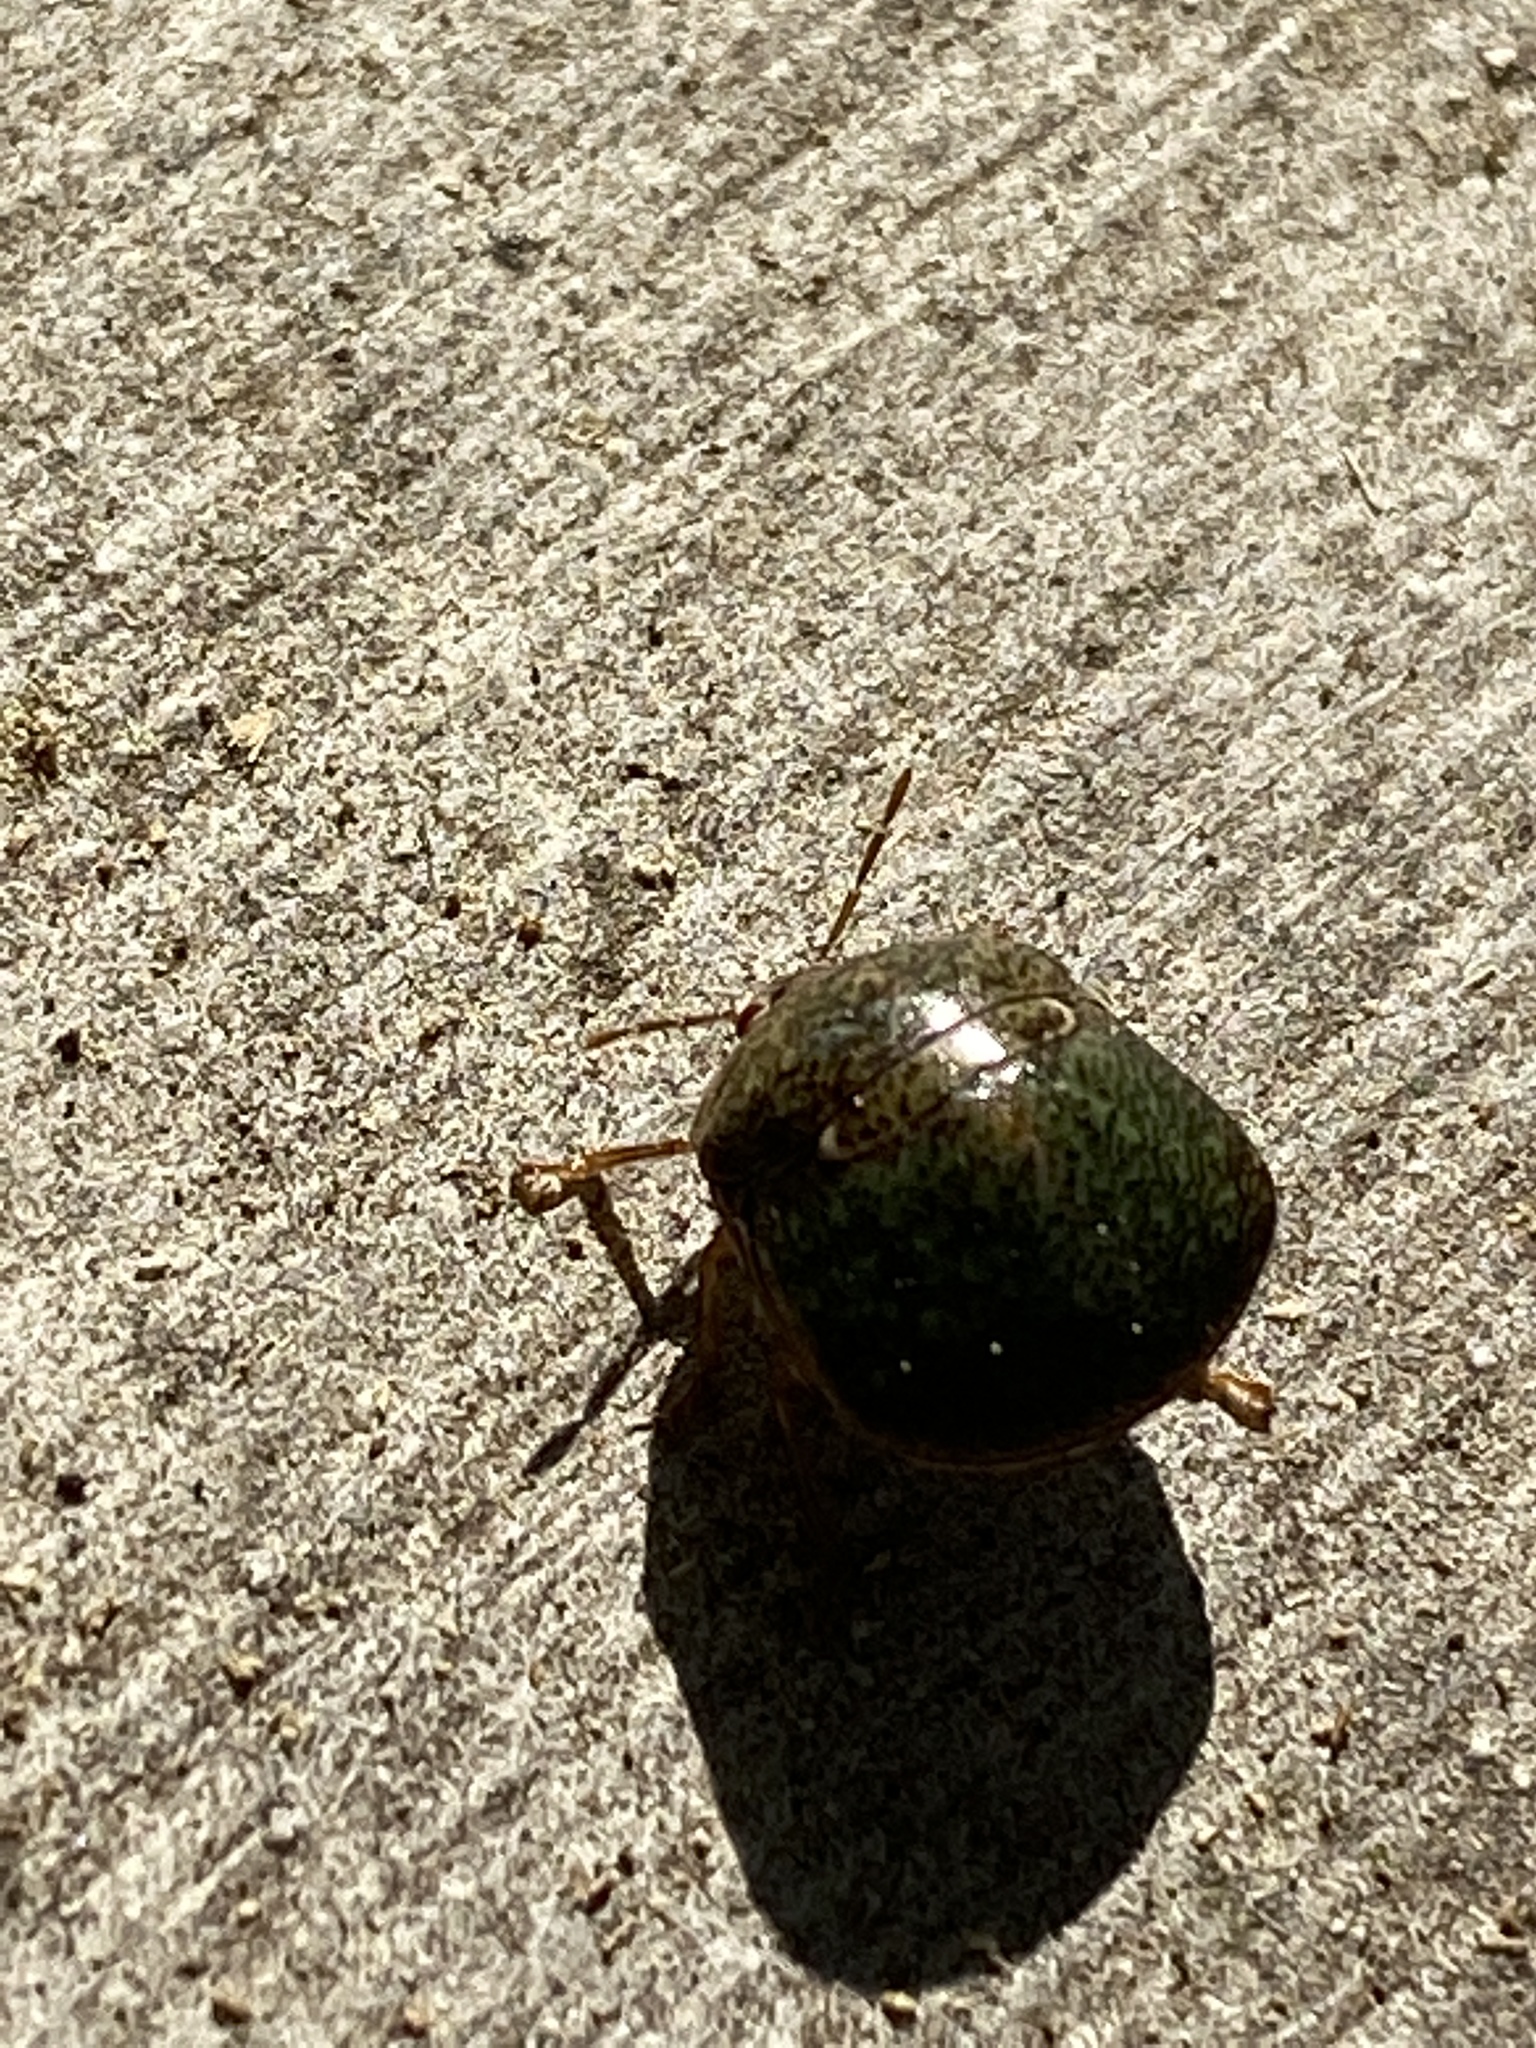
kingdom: Animalia
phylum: Arthropoda
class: Insecta
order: Hemiptera
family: Plataspidae
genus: Megacopta
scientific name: Megacopta cribraria
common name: Bean plataspid
